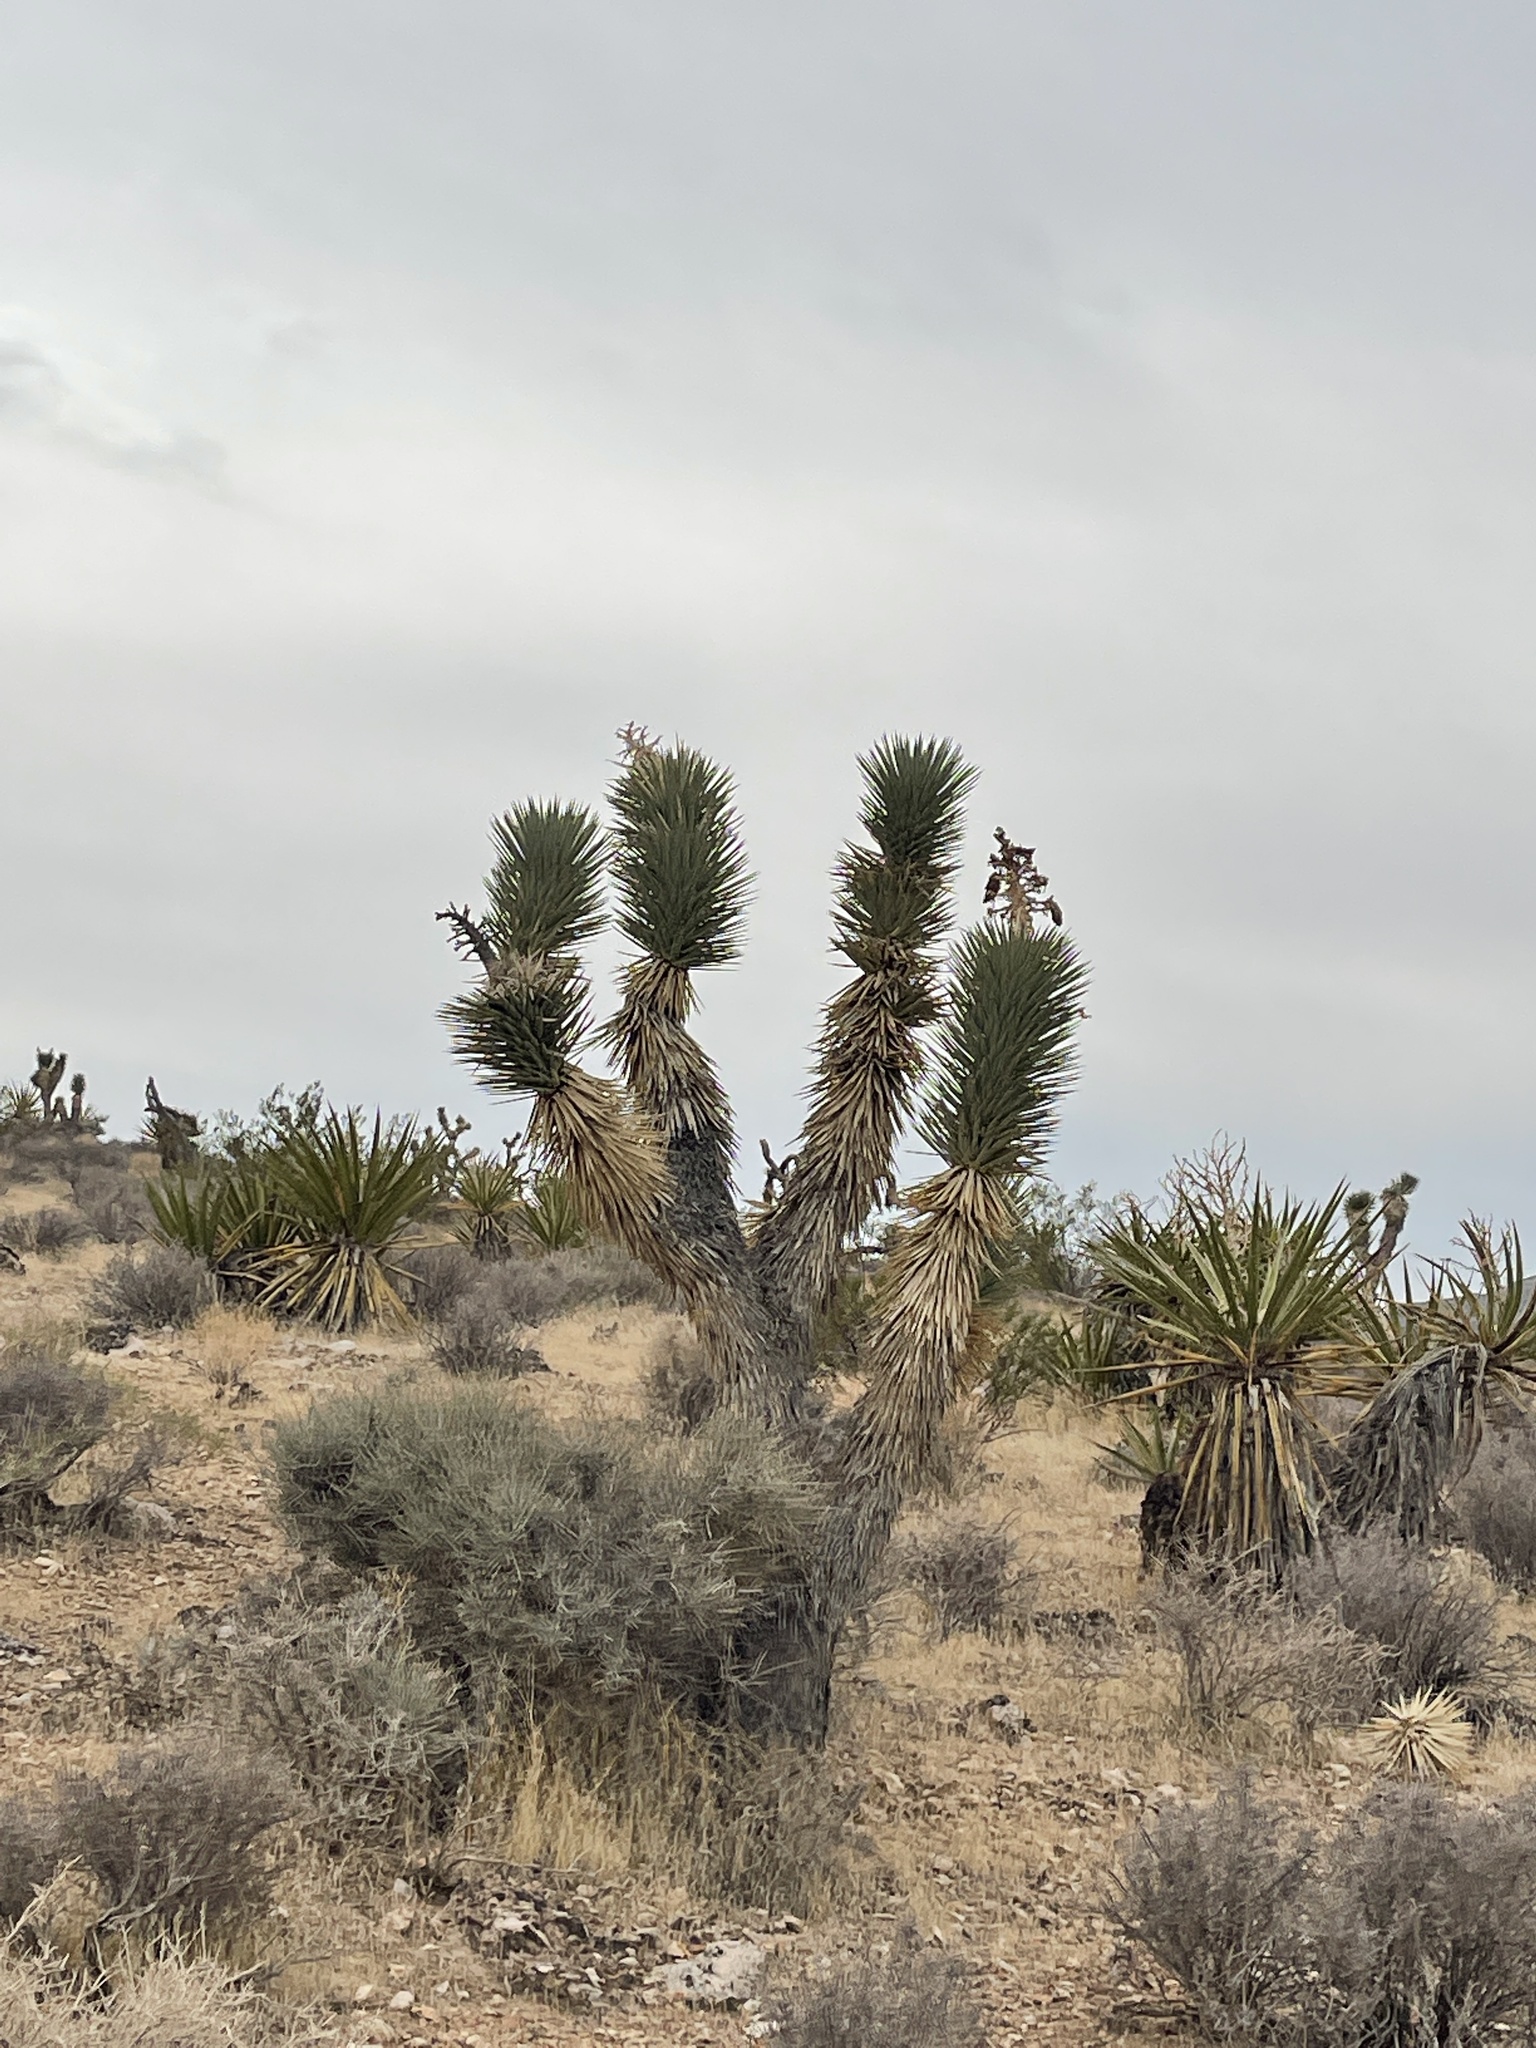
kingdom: Plantae
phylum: Tracheophyta
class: Liliopsida
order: Asparagales
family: Asparagaceae
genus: Yucca
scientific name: Yucca brevifolia
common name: Joshua tree
